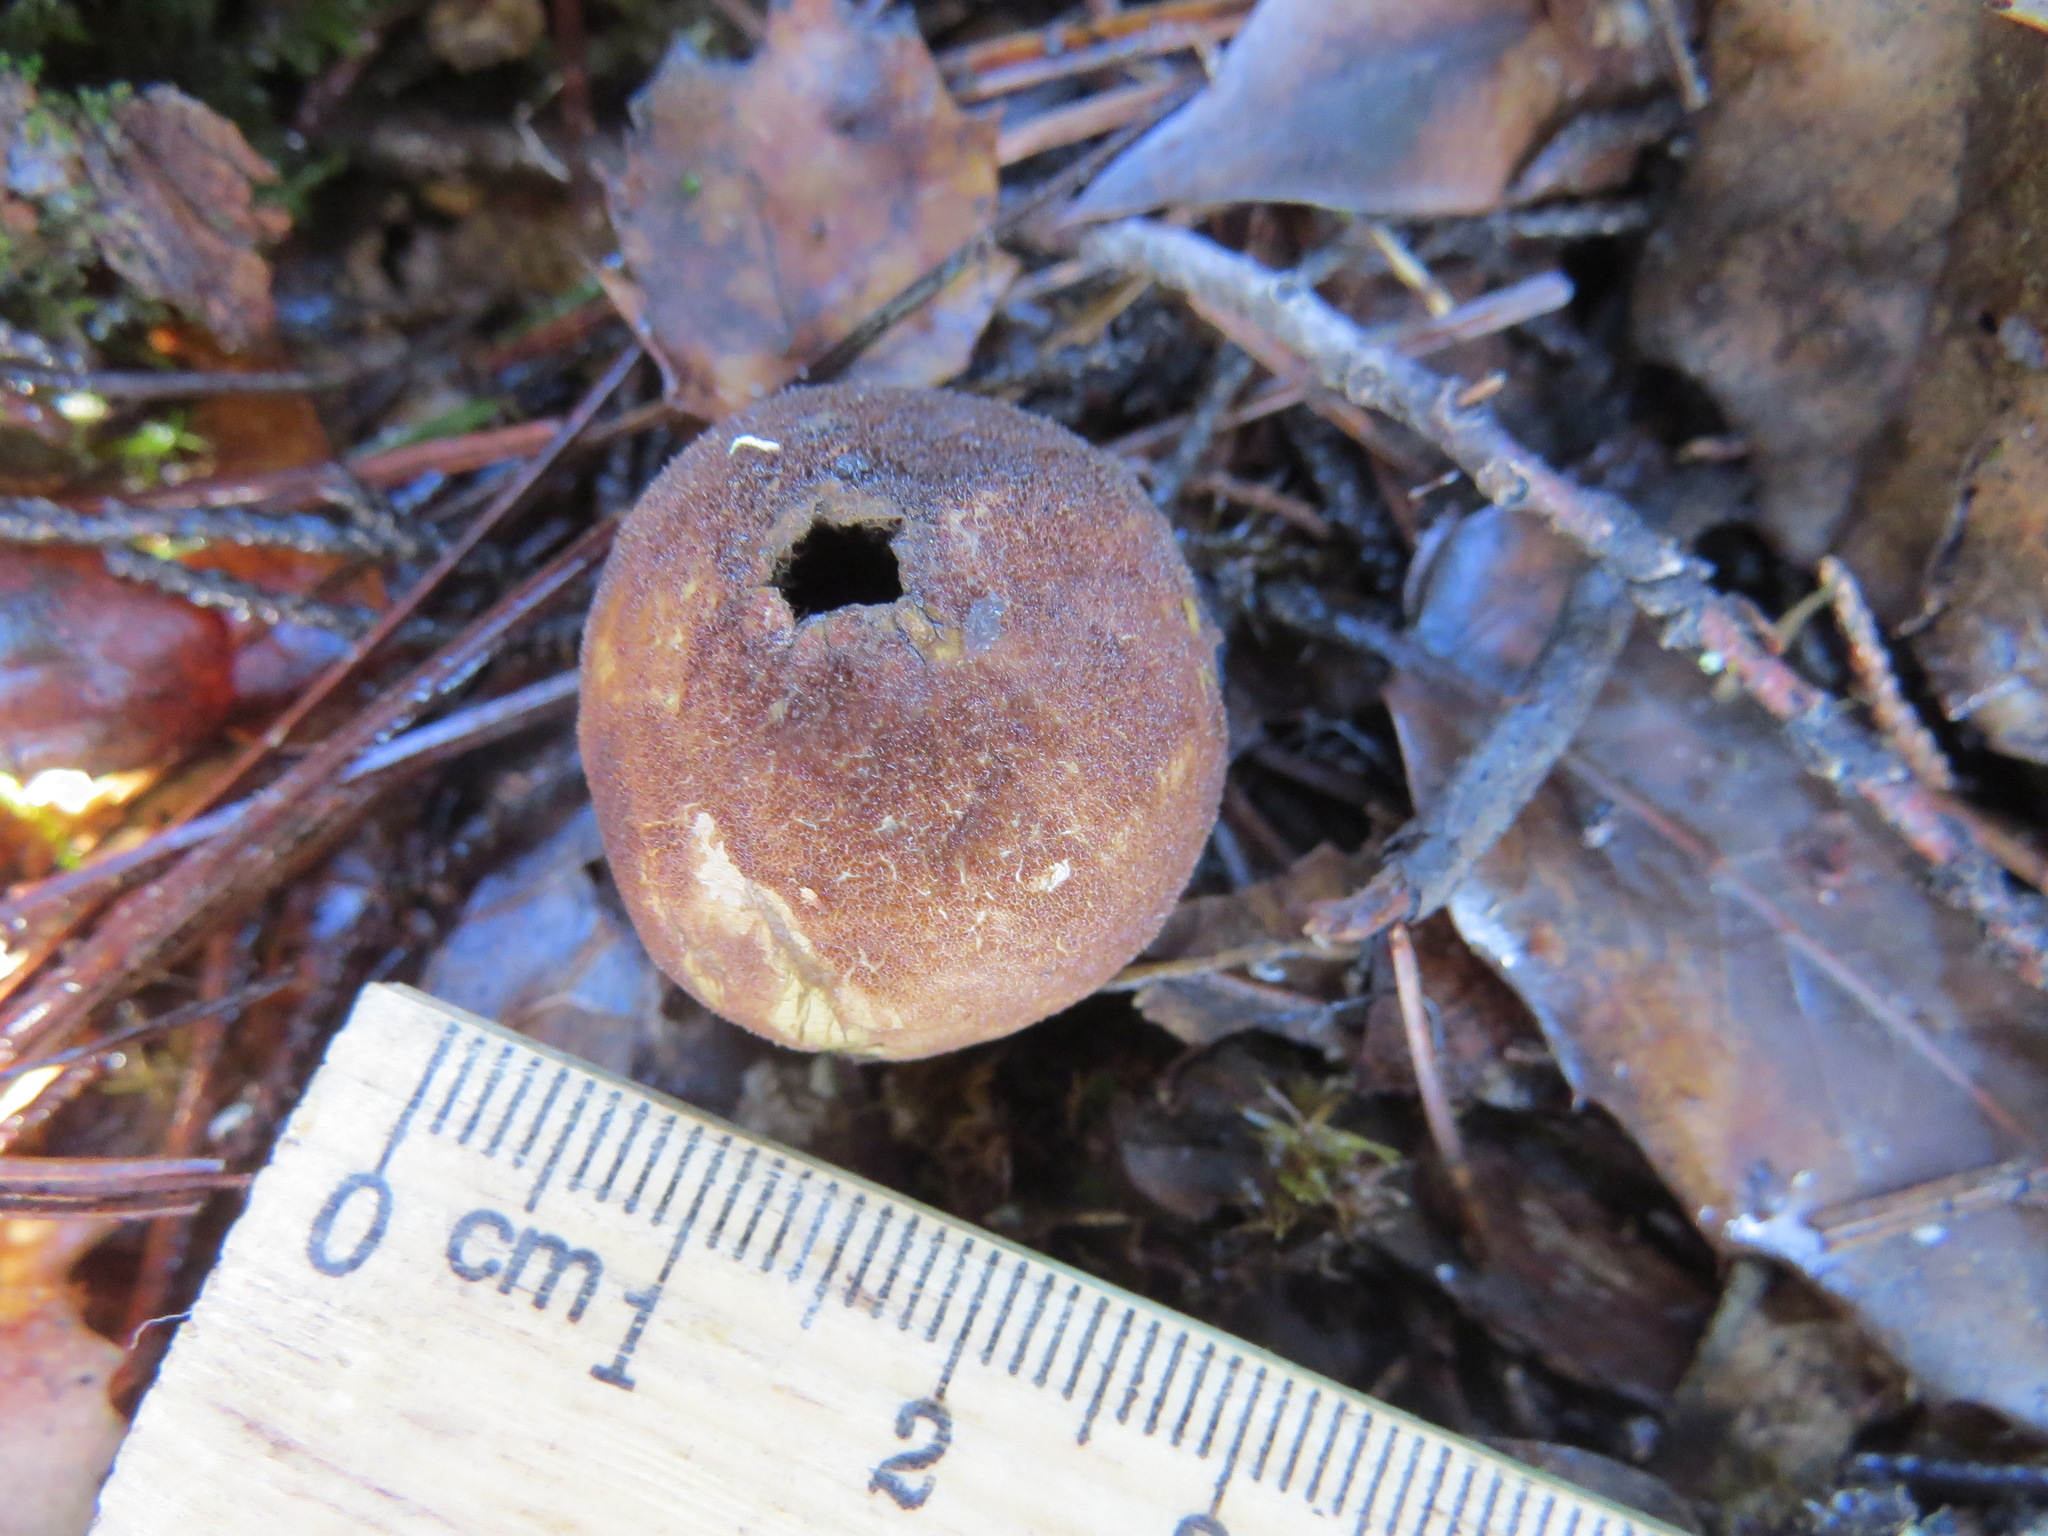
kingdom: Fungi
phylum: Basidiomycota
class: Agaricomycetes
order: Agaricales
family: Lycoperdaceae
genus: Lycoperdon
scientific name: Lycoperdon umbrinum
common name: Umber-brown puffball
